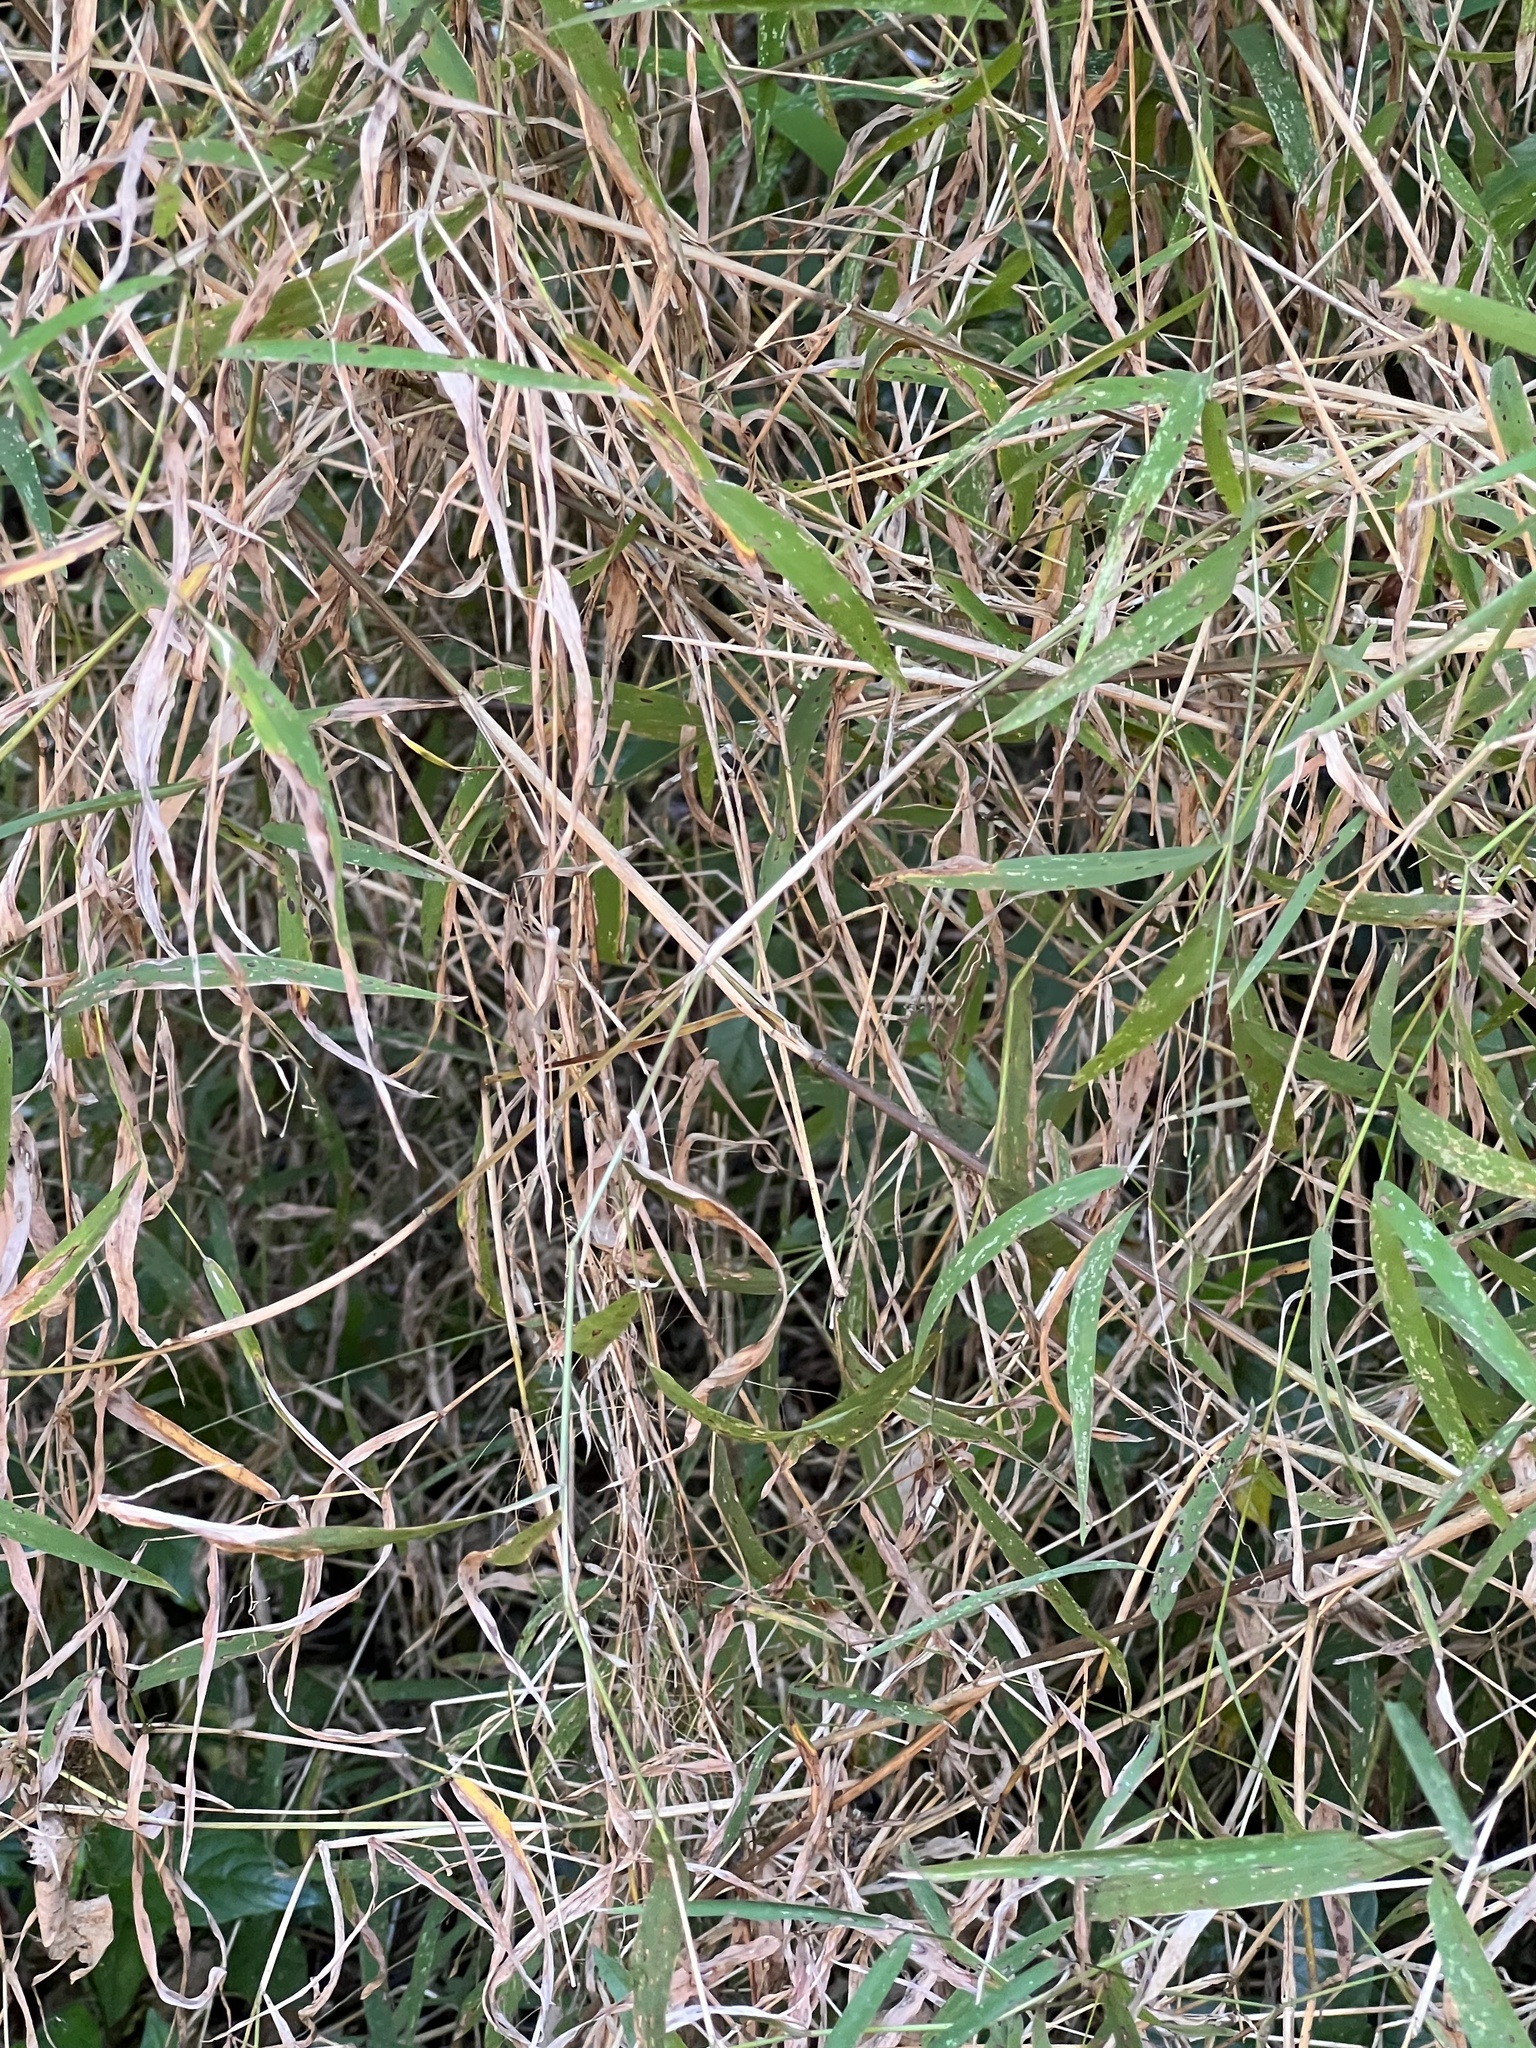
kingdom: Plantae
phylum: Tracheophyta
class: Liliopsida
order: Poales
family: Poaceae
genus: Prosphytochloa
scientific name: Prosphytochloa prehensilis
